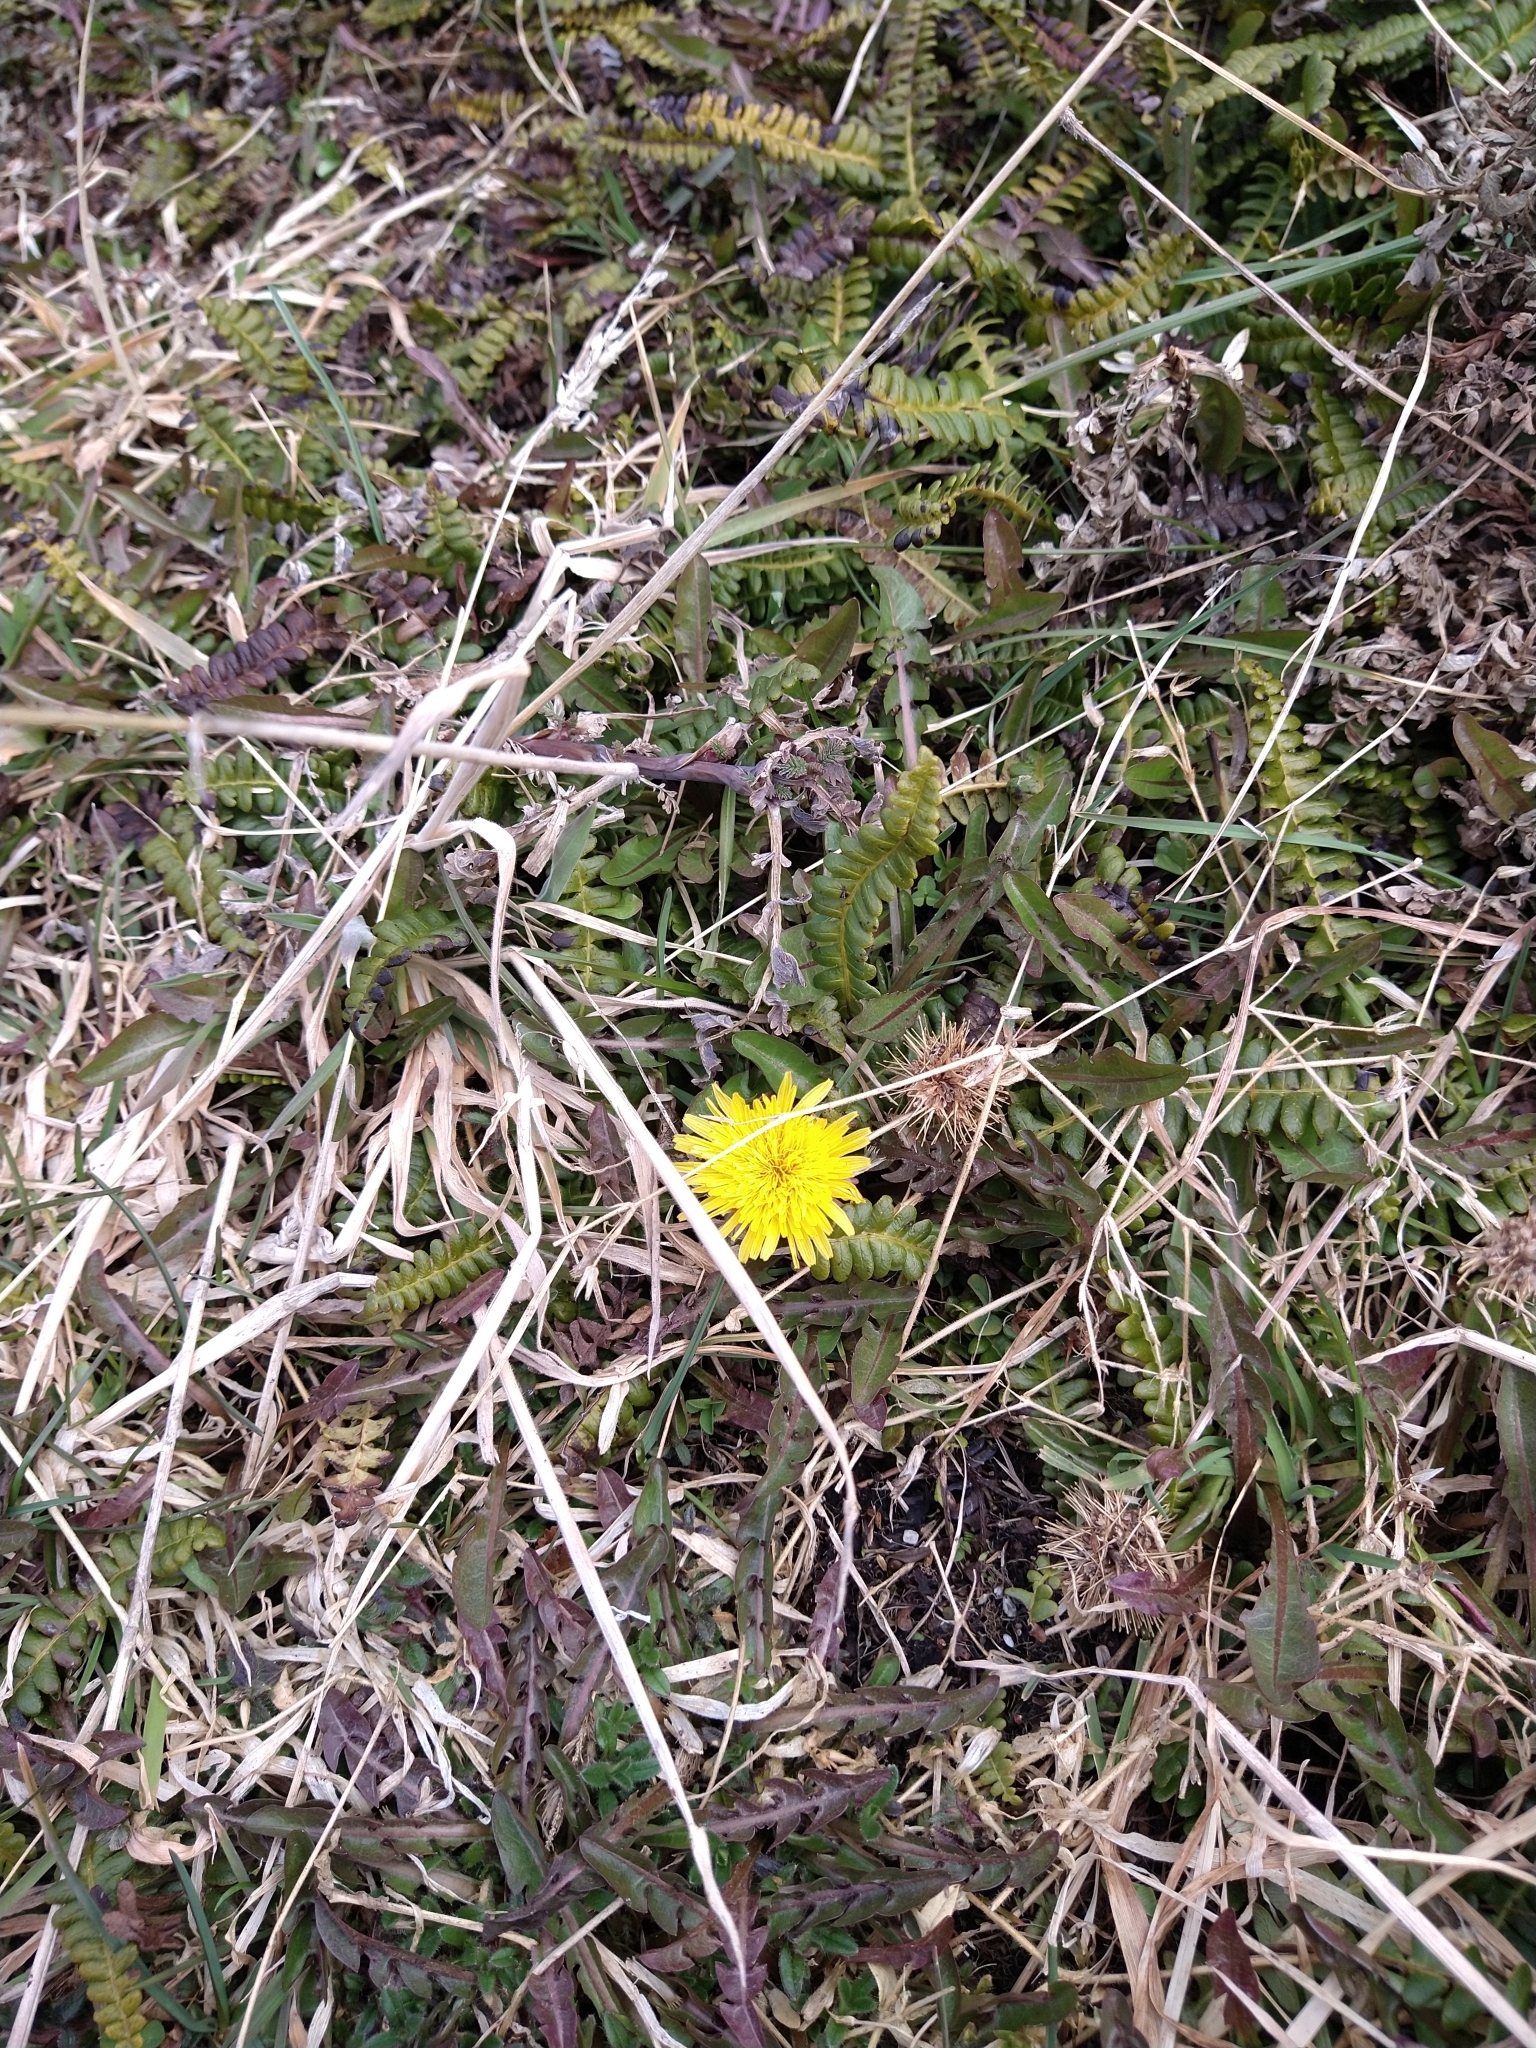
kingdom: Plantae
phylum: Tracheophyta
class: Magnoliopsida
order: Asterales
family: Asteraceae
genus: Taraxacum
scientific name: Taraxacum officinale
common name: Common dandelion
